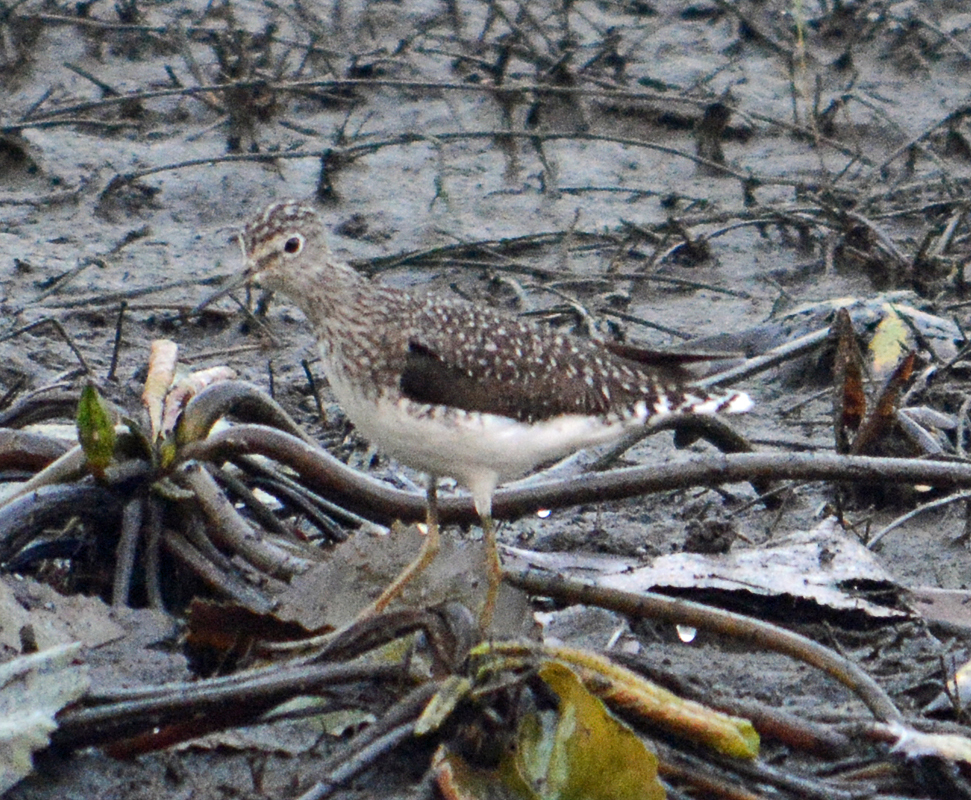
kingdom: Animalia
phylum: Chordata
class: Aves
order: Charadriiformes
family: Scolopacidae
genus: Tringa
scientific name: Tringa solitaria
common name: Solitary sandpiper
